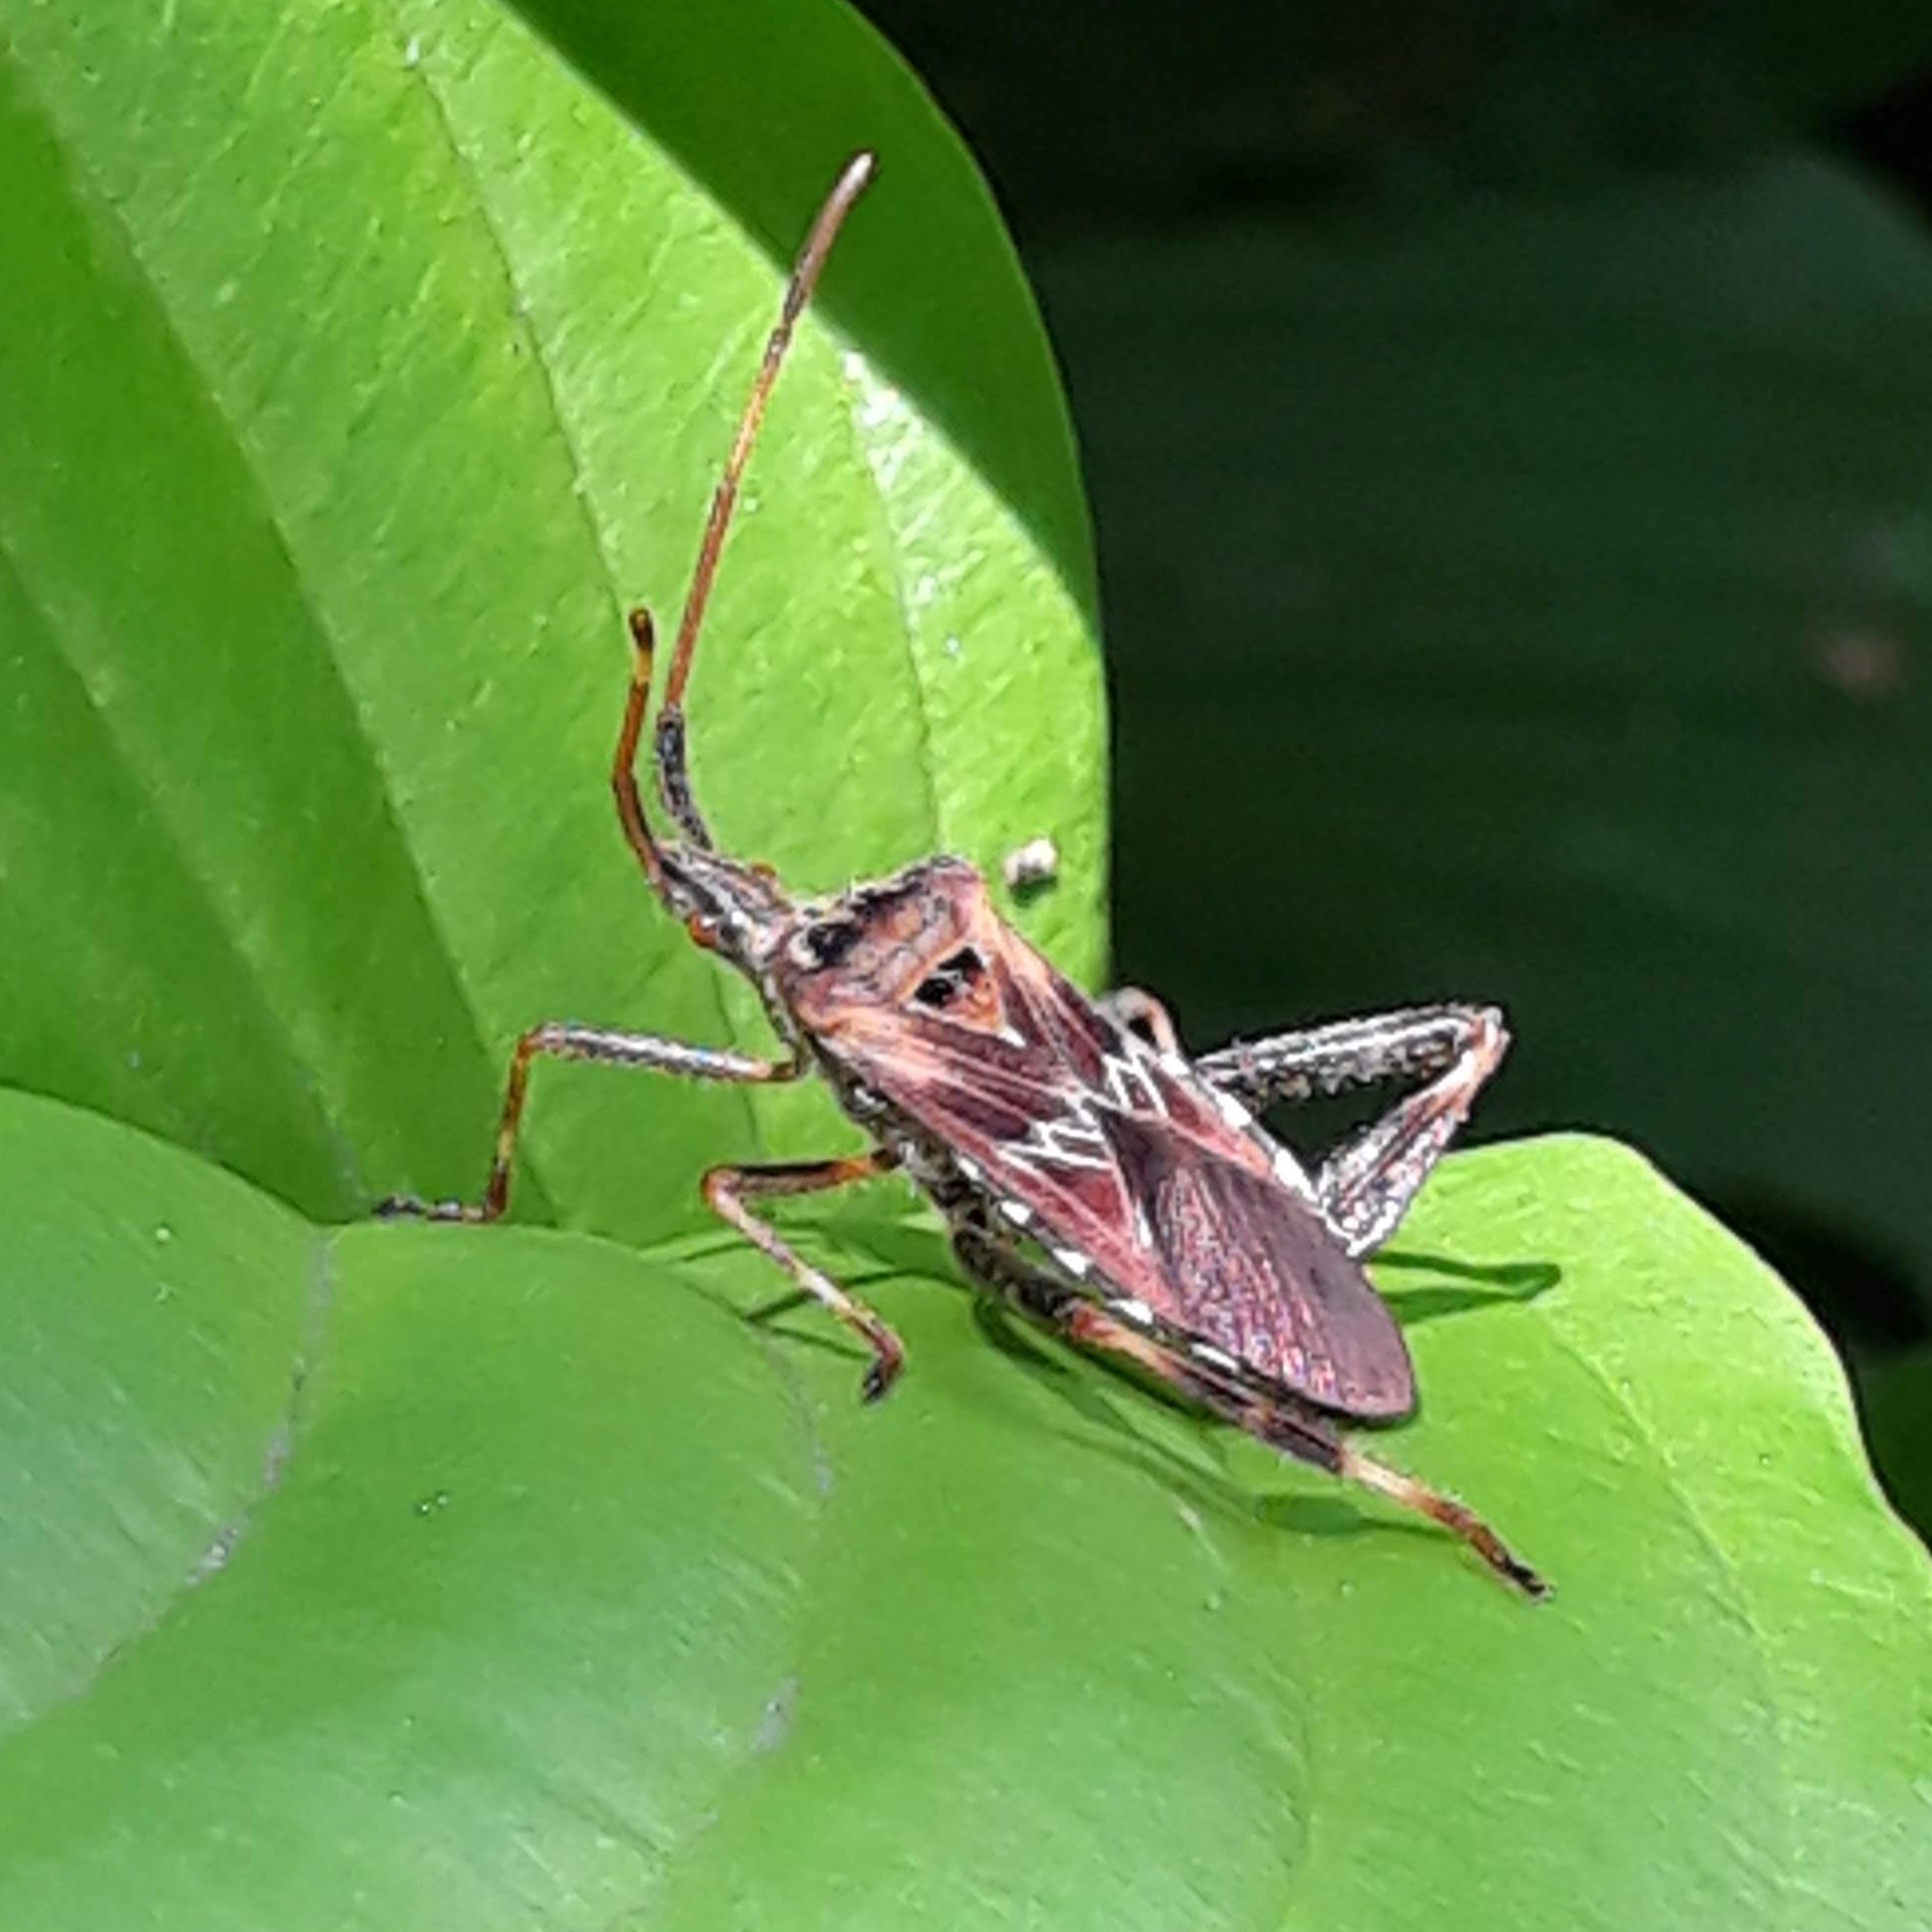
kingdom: Animalia
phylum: Arthropoda
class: Insecta
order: Hemiptera
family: Coreidae
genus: Leptoglossus
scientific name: Leptoglossus occidentalis
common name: Western conifer-seed bug
